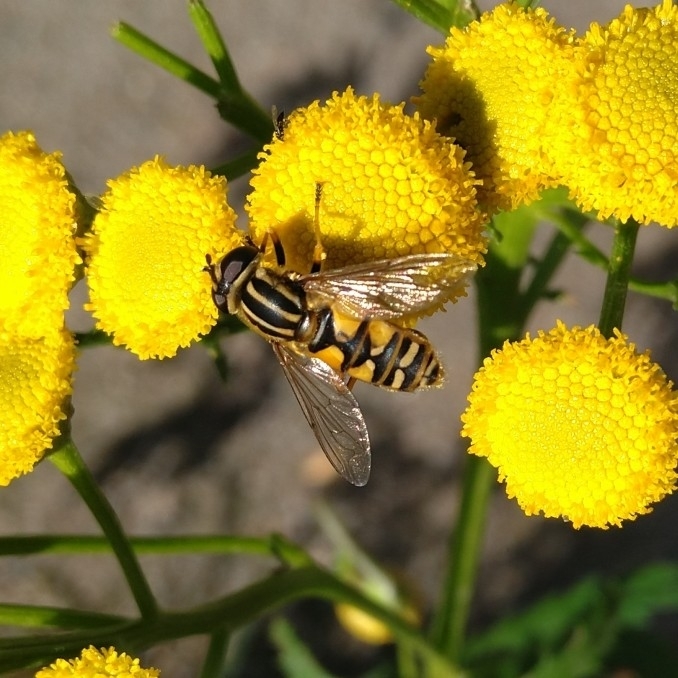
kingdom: Animalia
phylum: Arthropoda
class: Insecta
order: Diptera
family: Syrphidae
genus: Helophilus
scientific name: Helophilus pendulus
